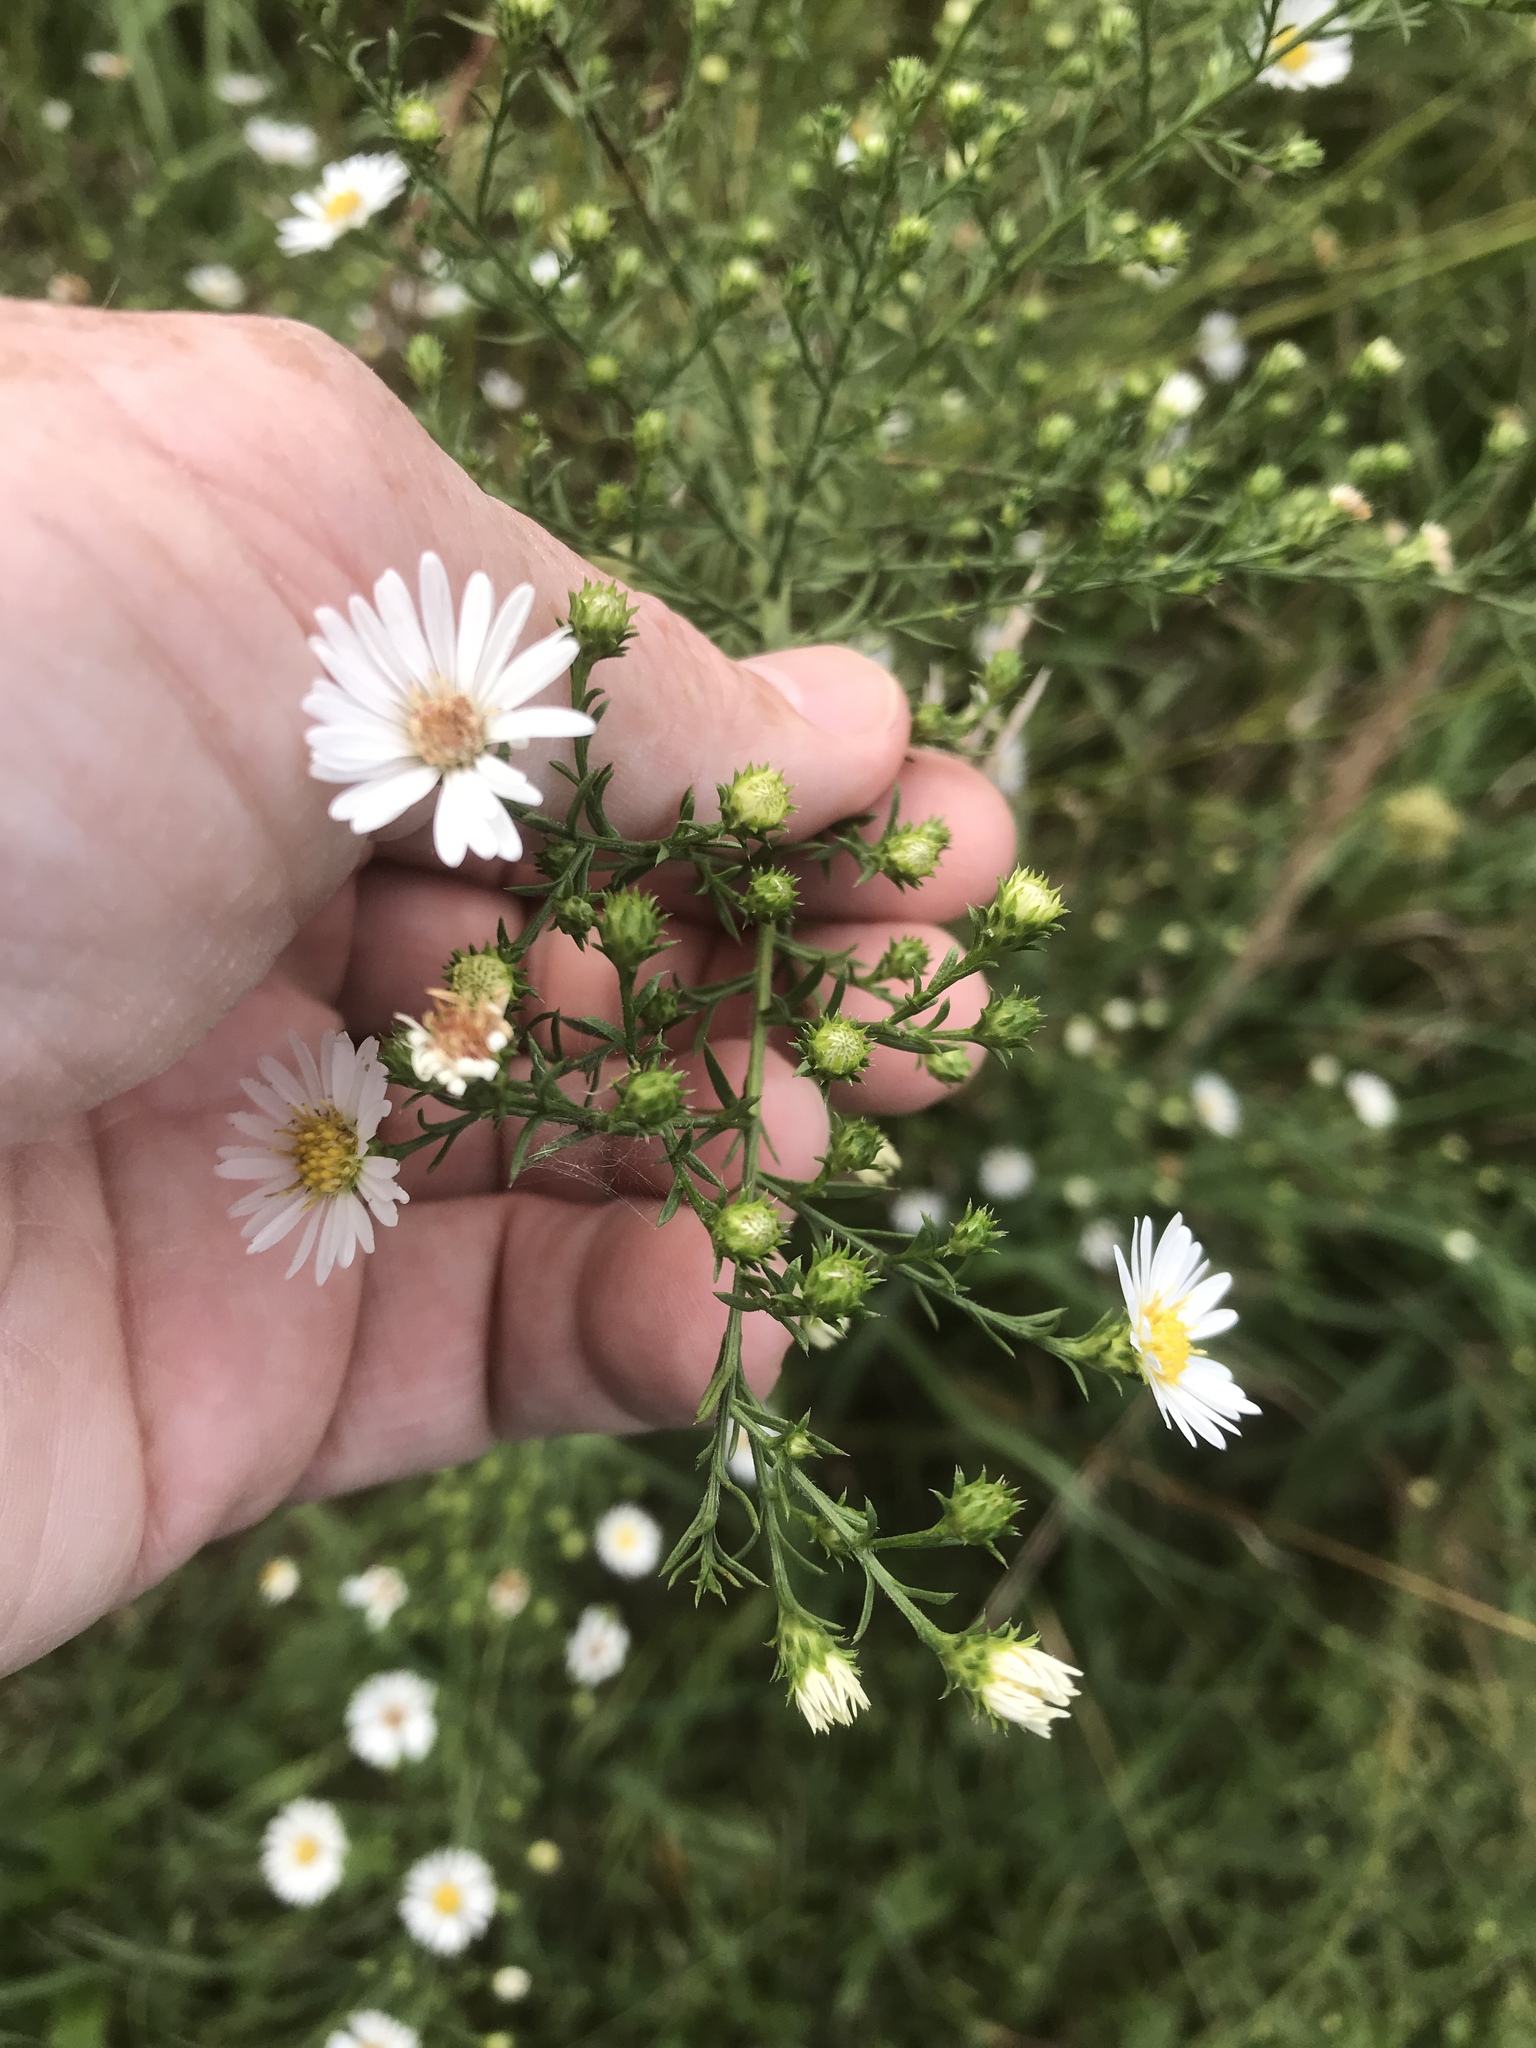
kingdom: Plantae
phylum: Tracheophyta
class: Magnoliopsida
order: Asterales
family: Asteraceae
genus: Symphyotrichum
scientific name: Symphyotrichum pilosum
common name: Awl aster
